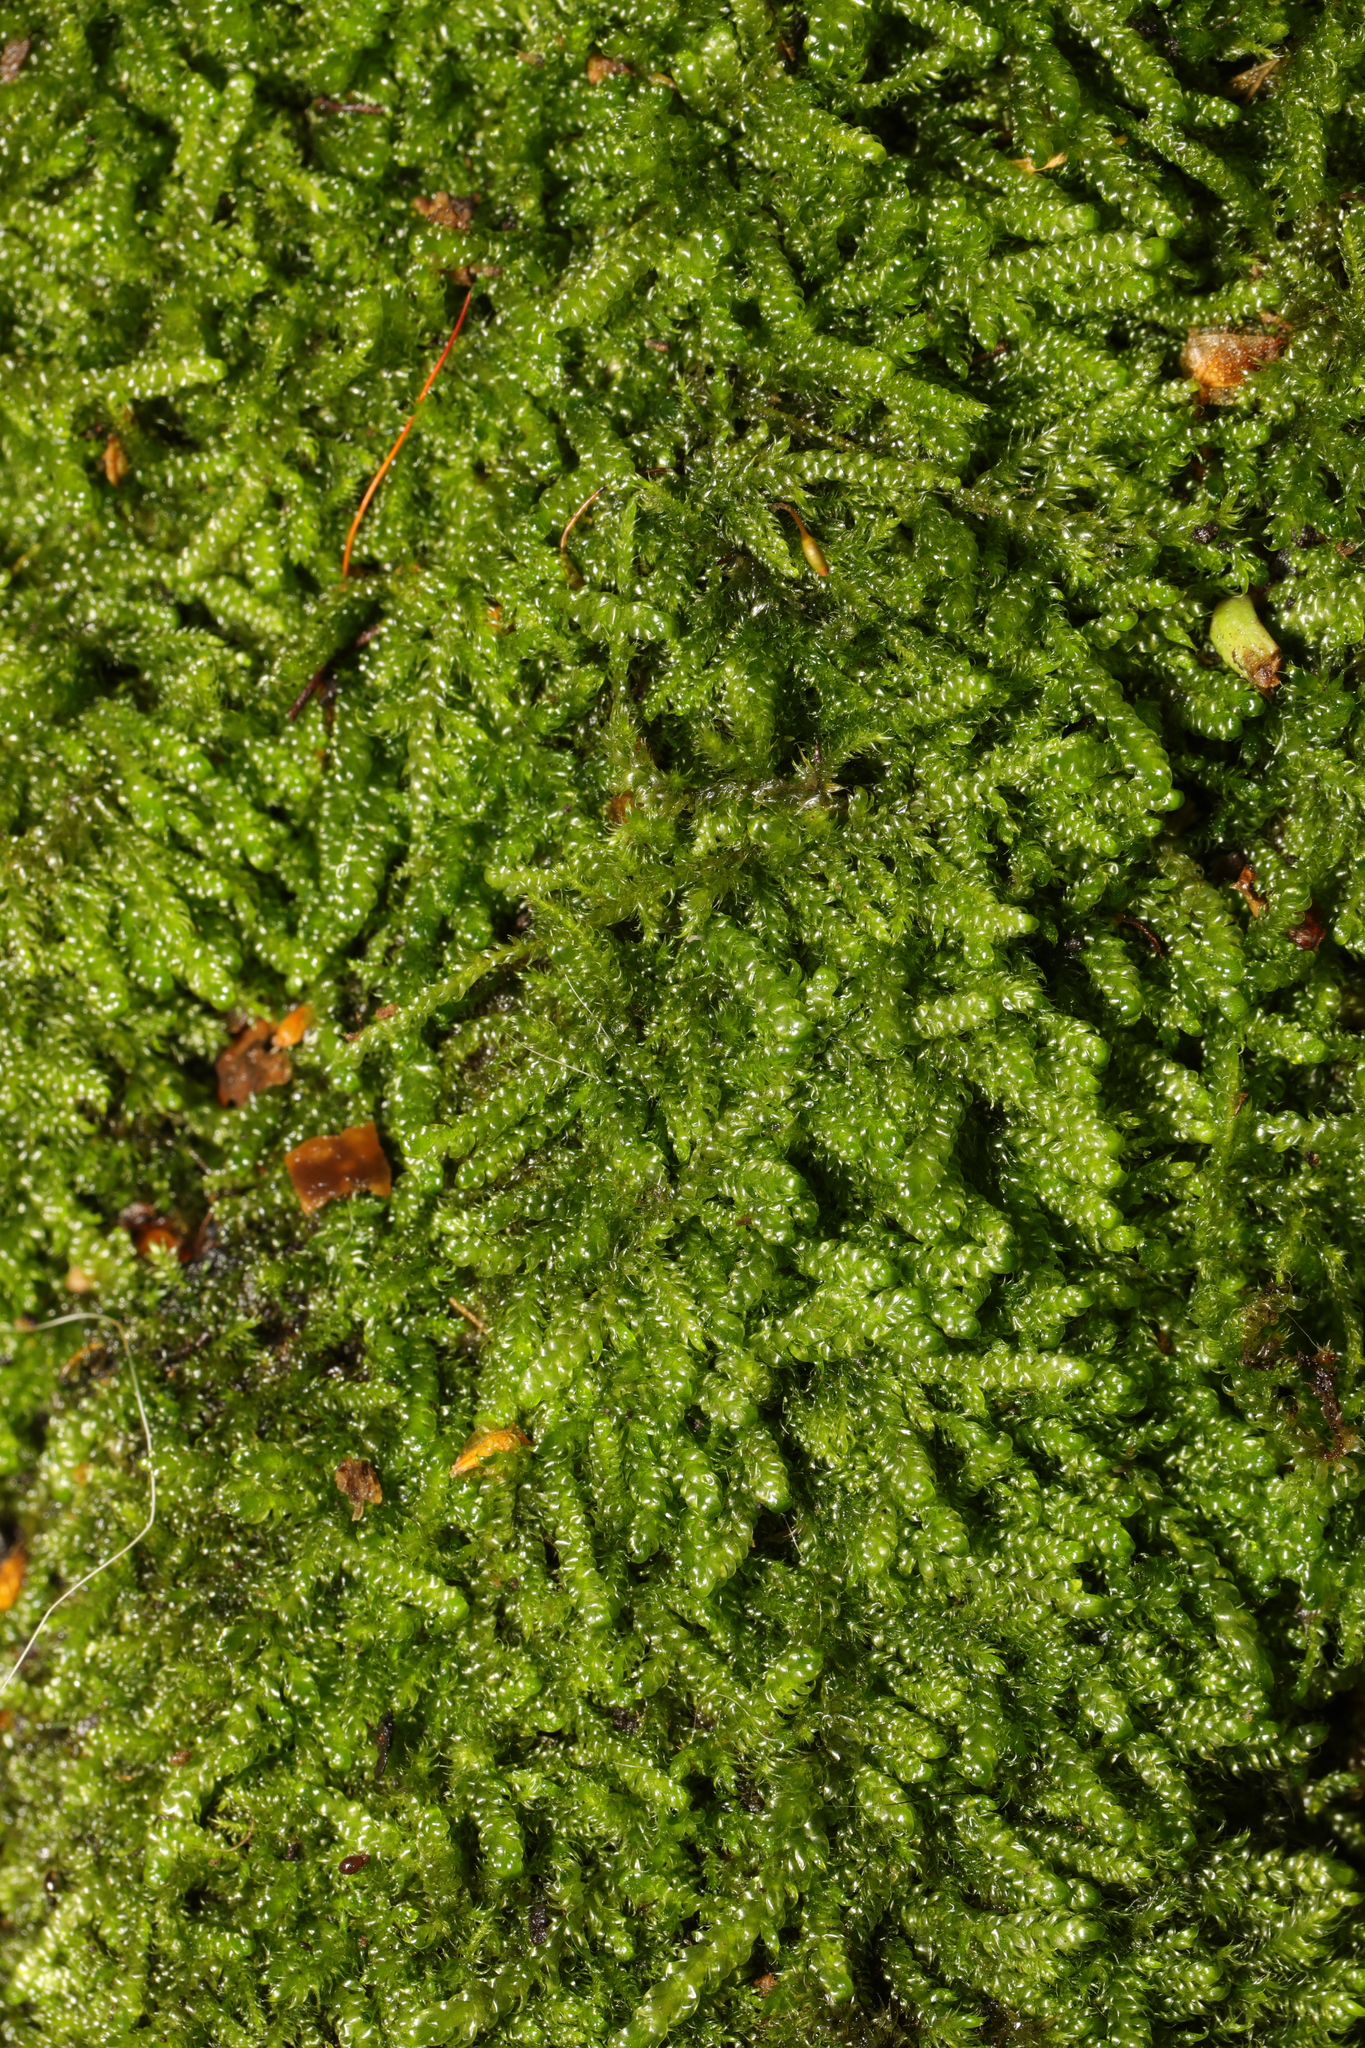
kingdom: Plantae
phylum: Bryophyta
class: Bryopsida
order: Hypnales
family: Hypnaceae
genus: Hypnum
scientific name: Hypnum cupressiforme
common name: Cypress-leaved plait-moss
